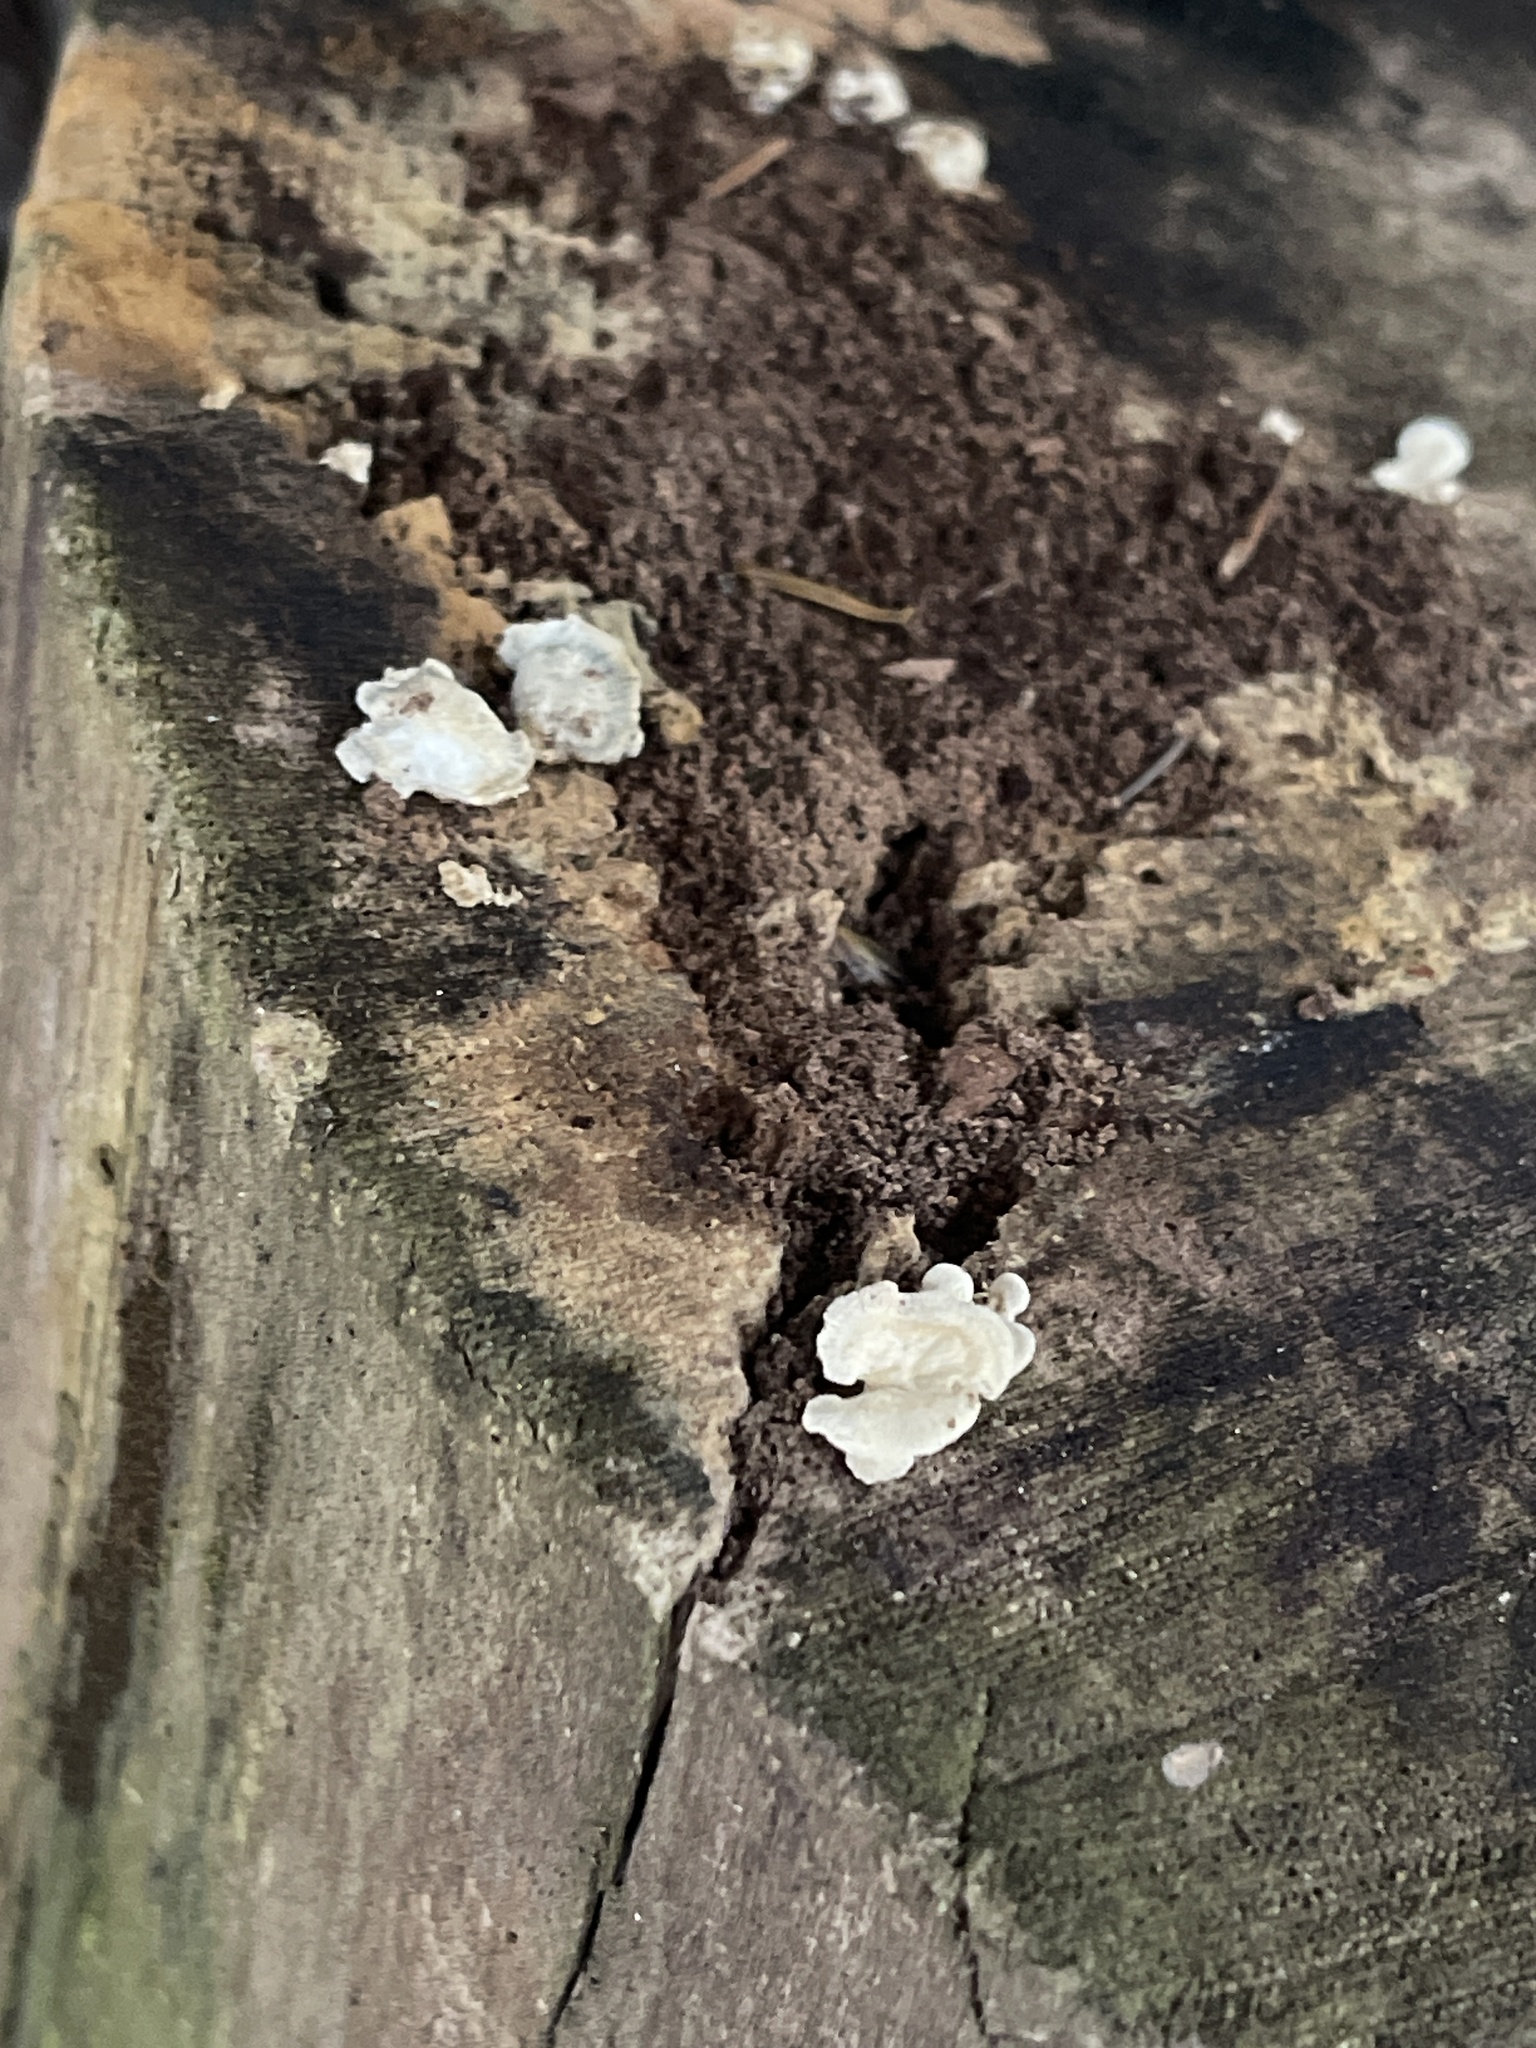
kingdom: Fungi
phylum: Basidiomycota
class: Agaricomycetes
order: Agaricales
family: Mycenaceae
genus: Panellus
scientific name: Panellus stipticus
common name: Bitter oysterling
